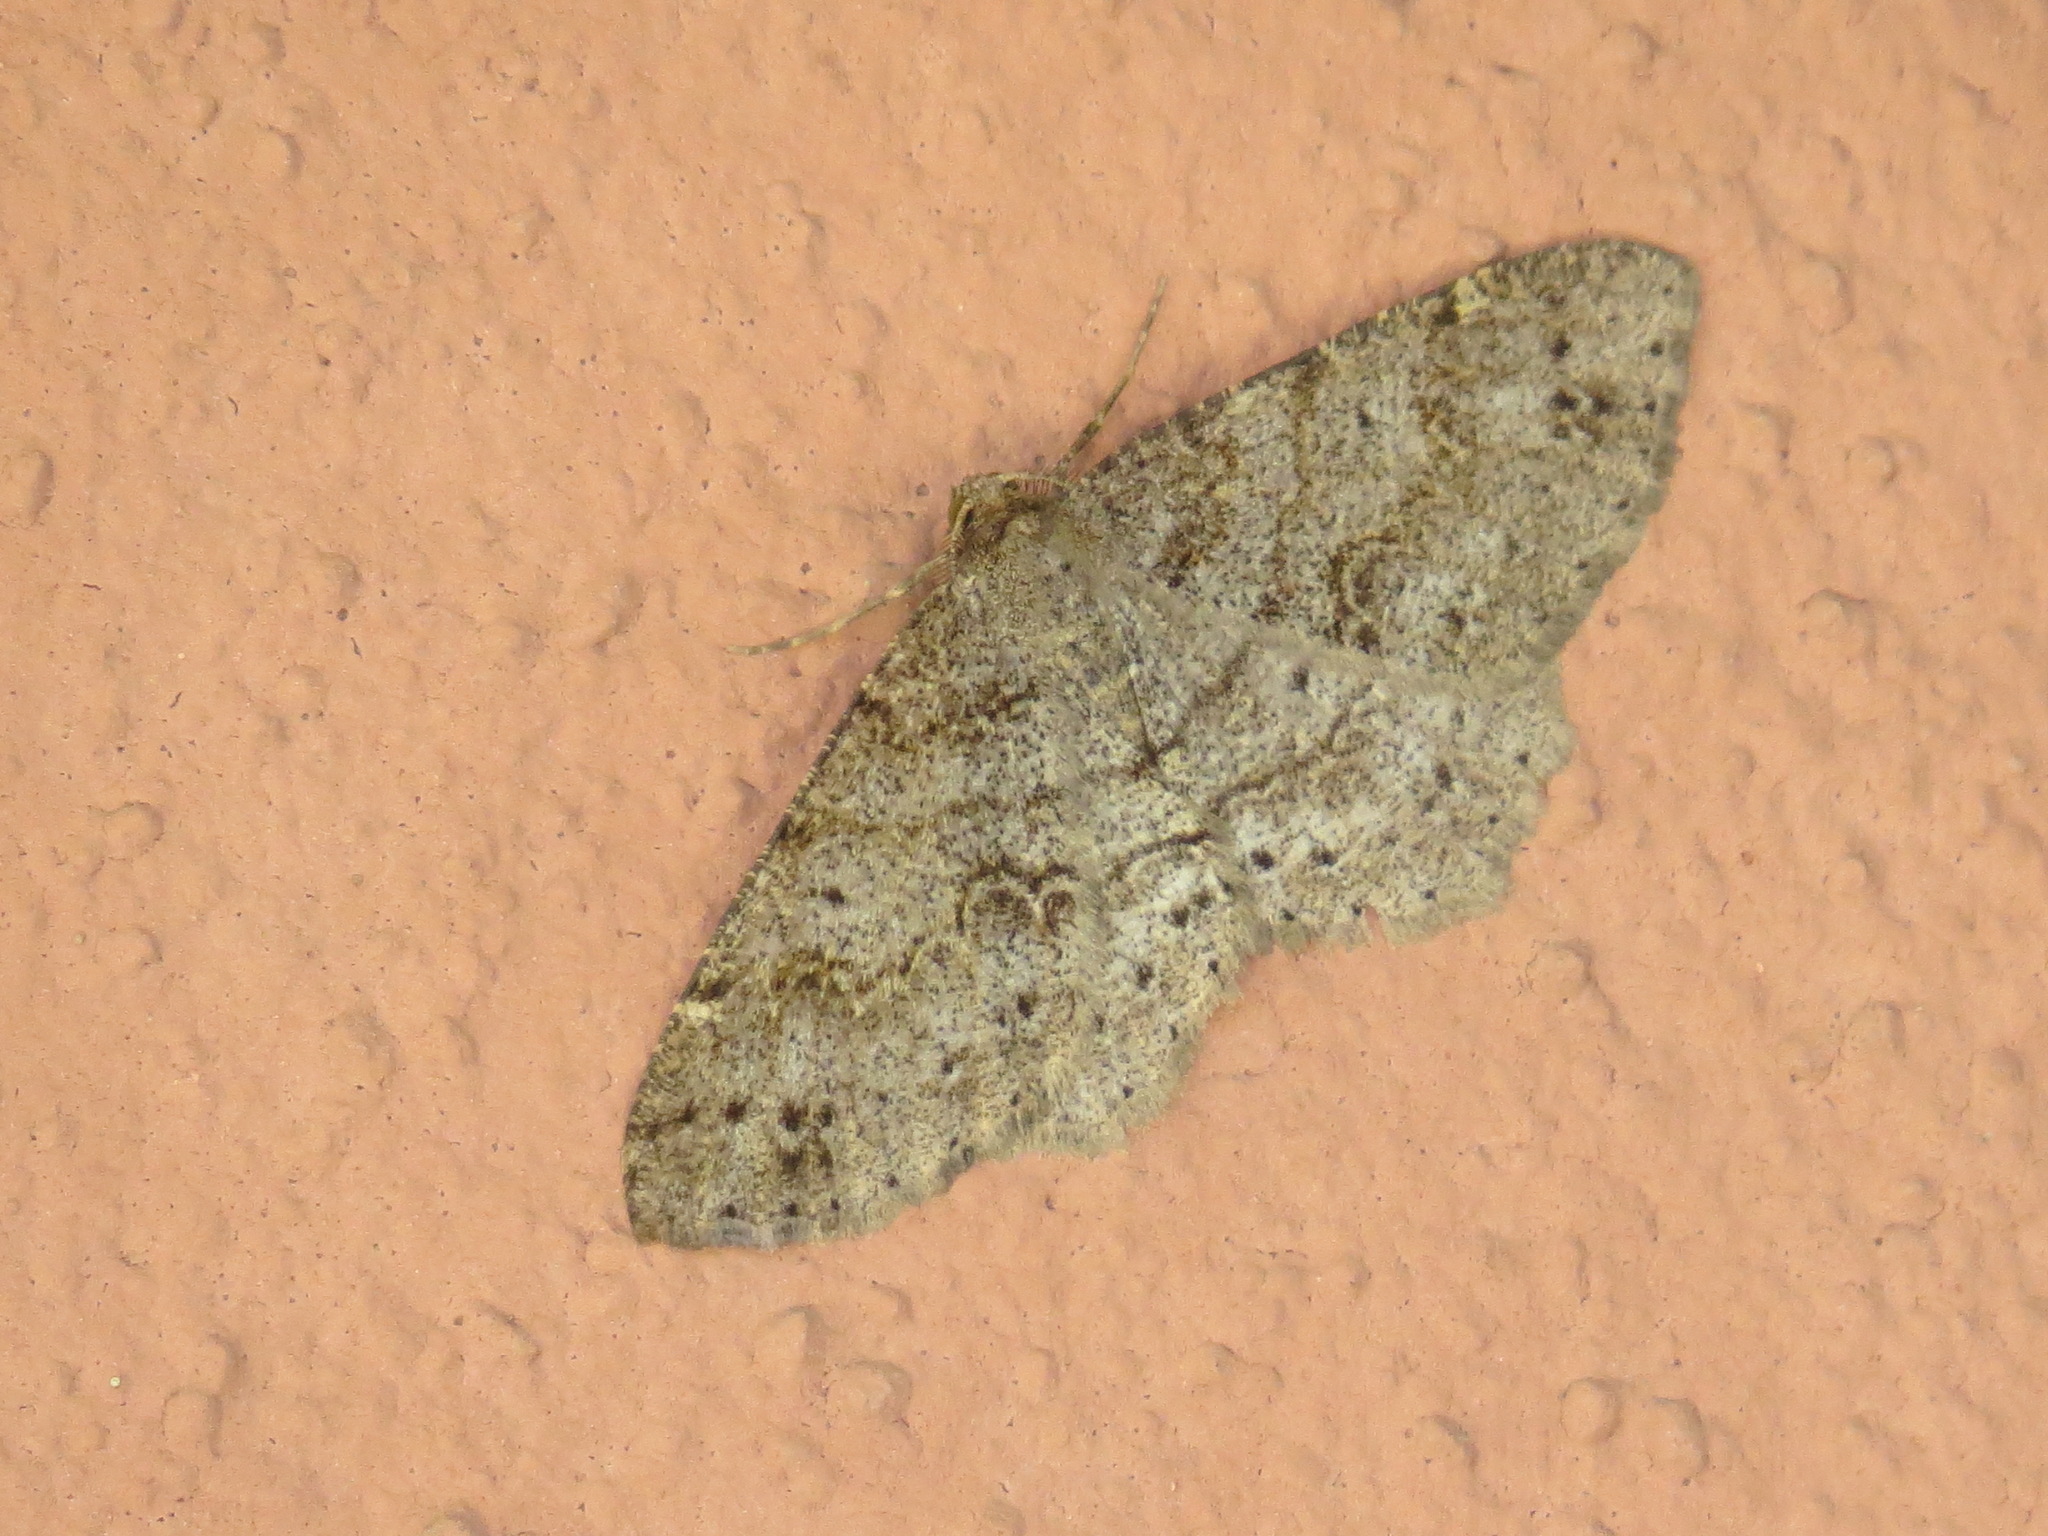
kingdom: Animalia
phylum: Arthropoda
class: Insecta
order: Lepidoptera
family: Geometridae
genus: Melanolophia
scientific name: Melanolophia imitata
